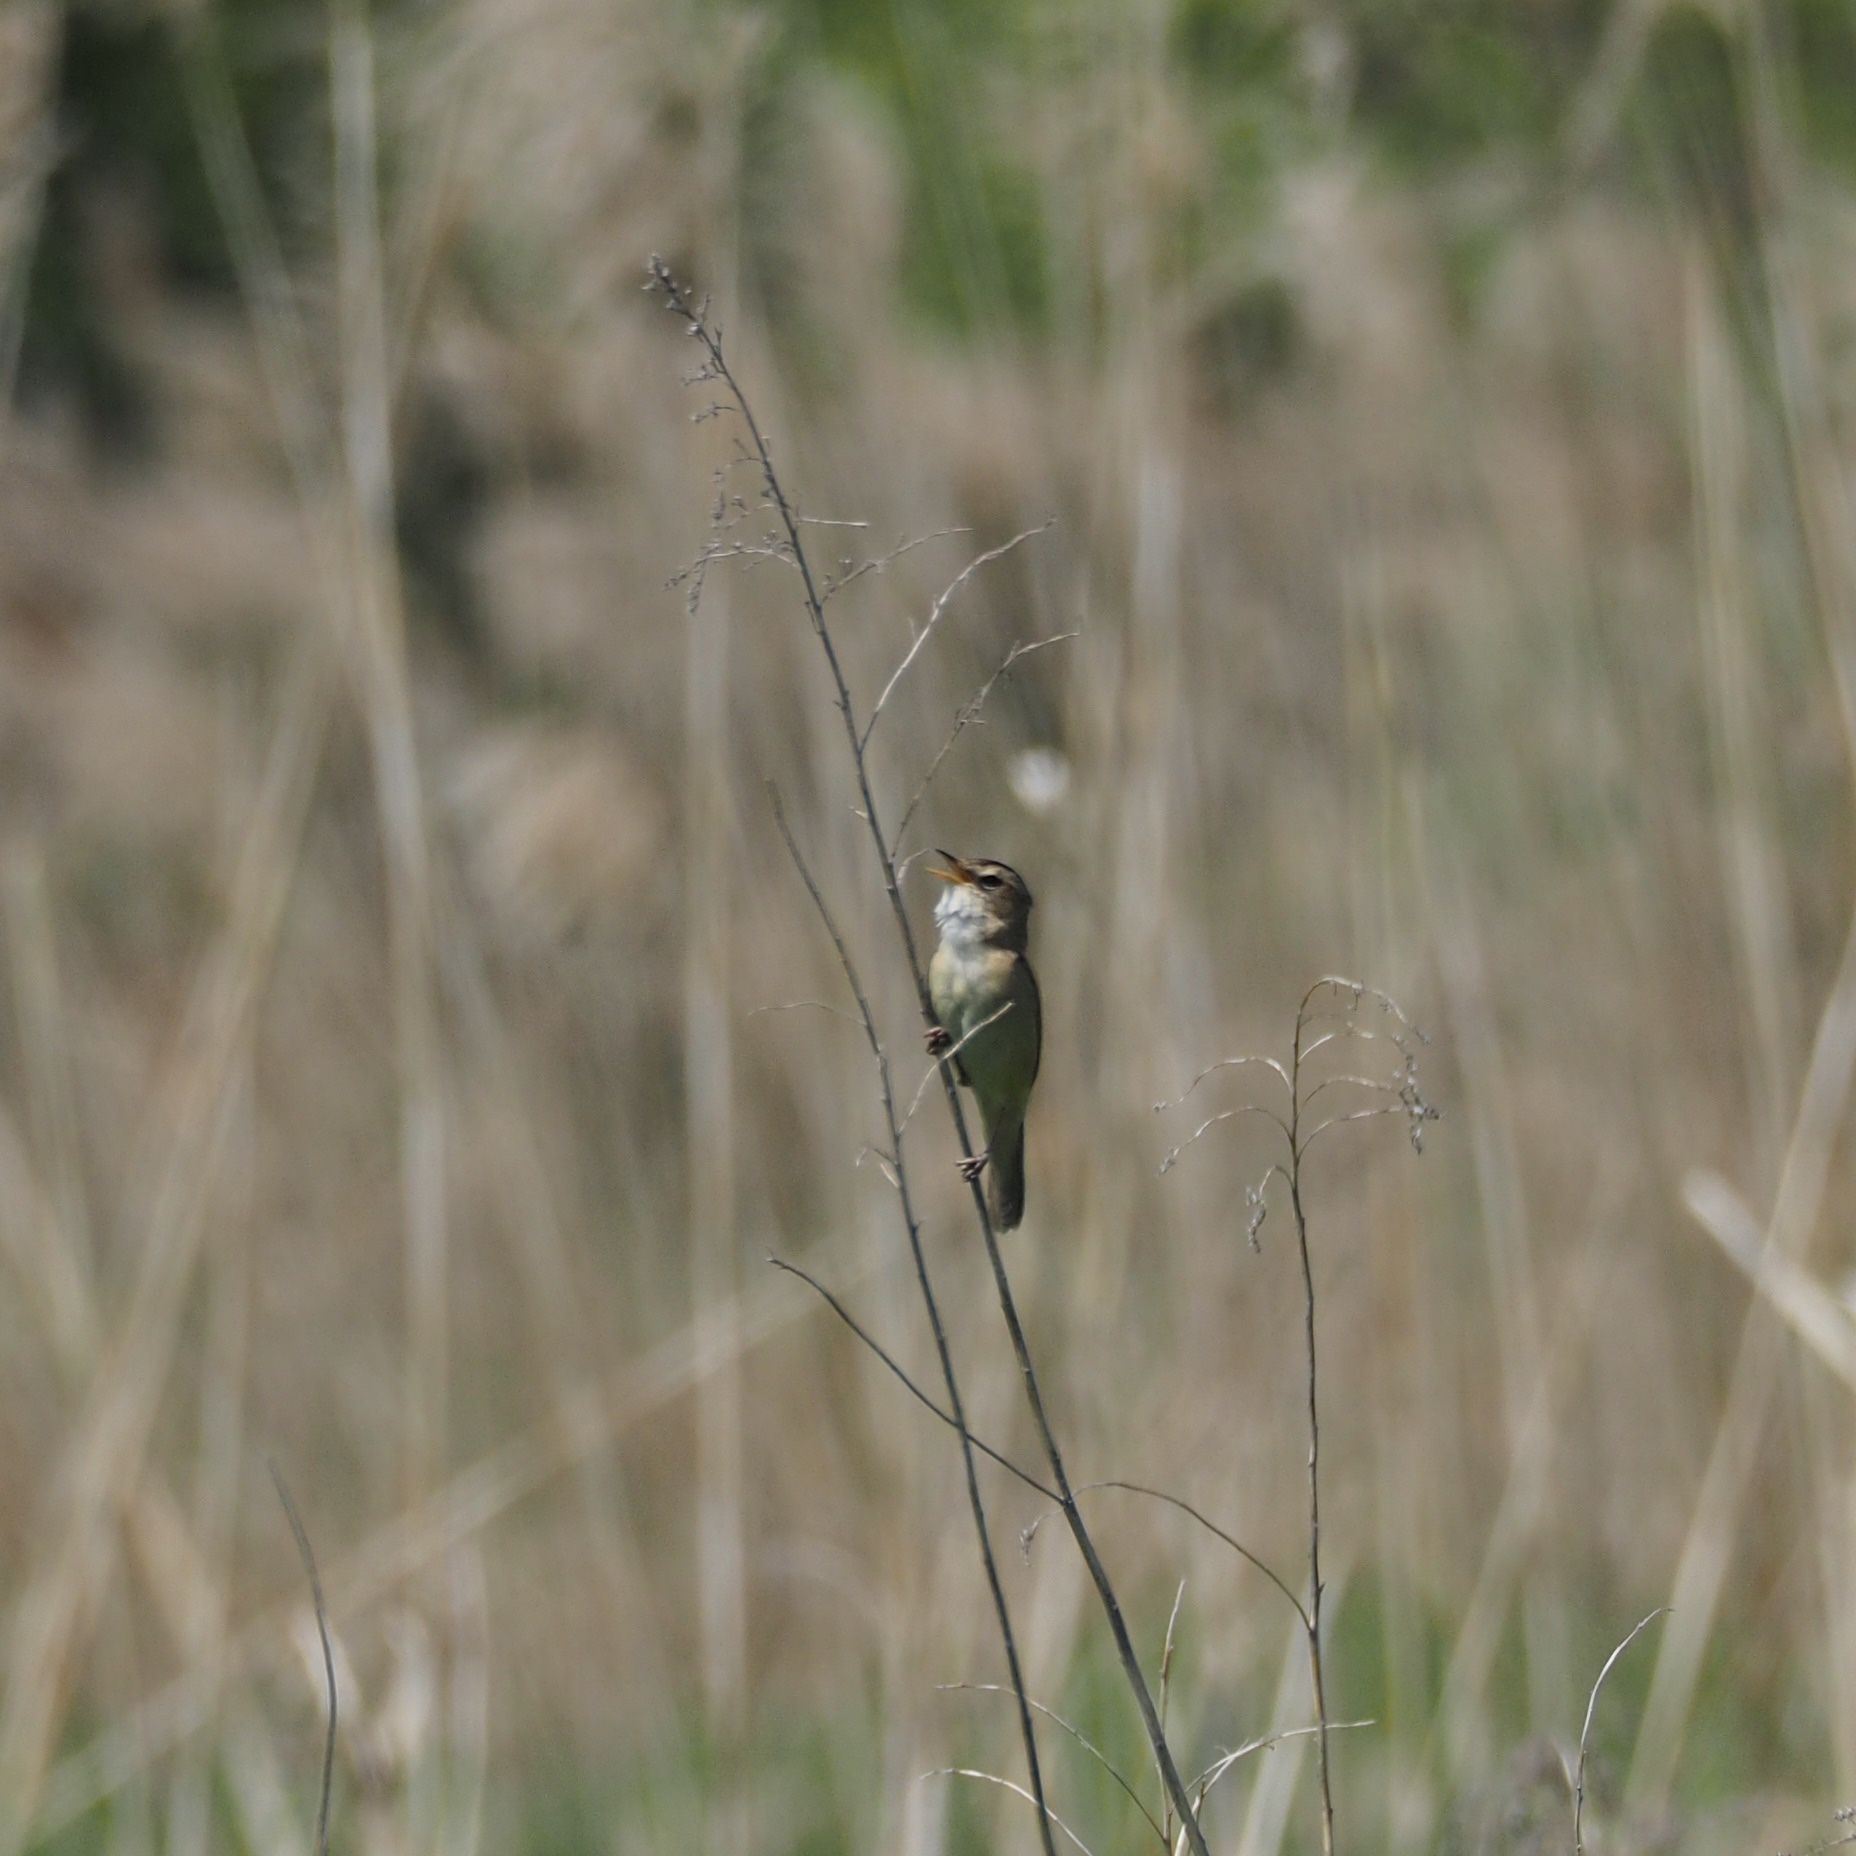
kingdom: Animalia
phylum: Chordata
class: Aves
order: Passeriformes
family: Acrocephalidae
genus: Acrocephalus
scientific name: Acrocephalus bistrigiceps
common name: Black-browed reed warbler
